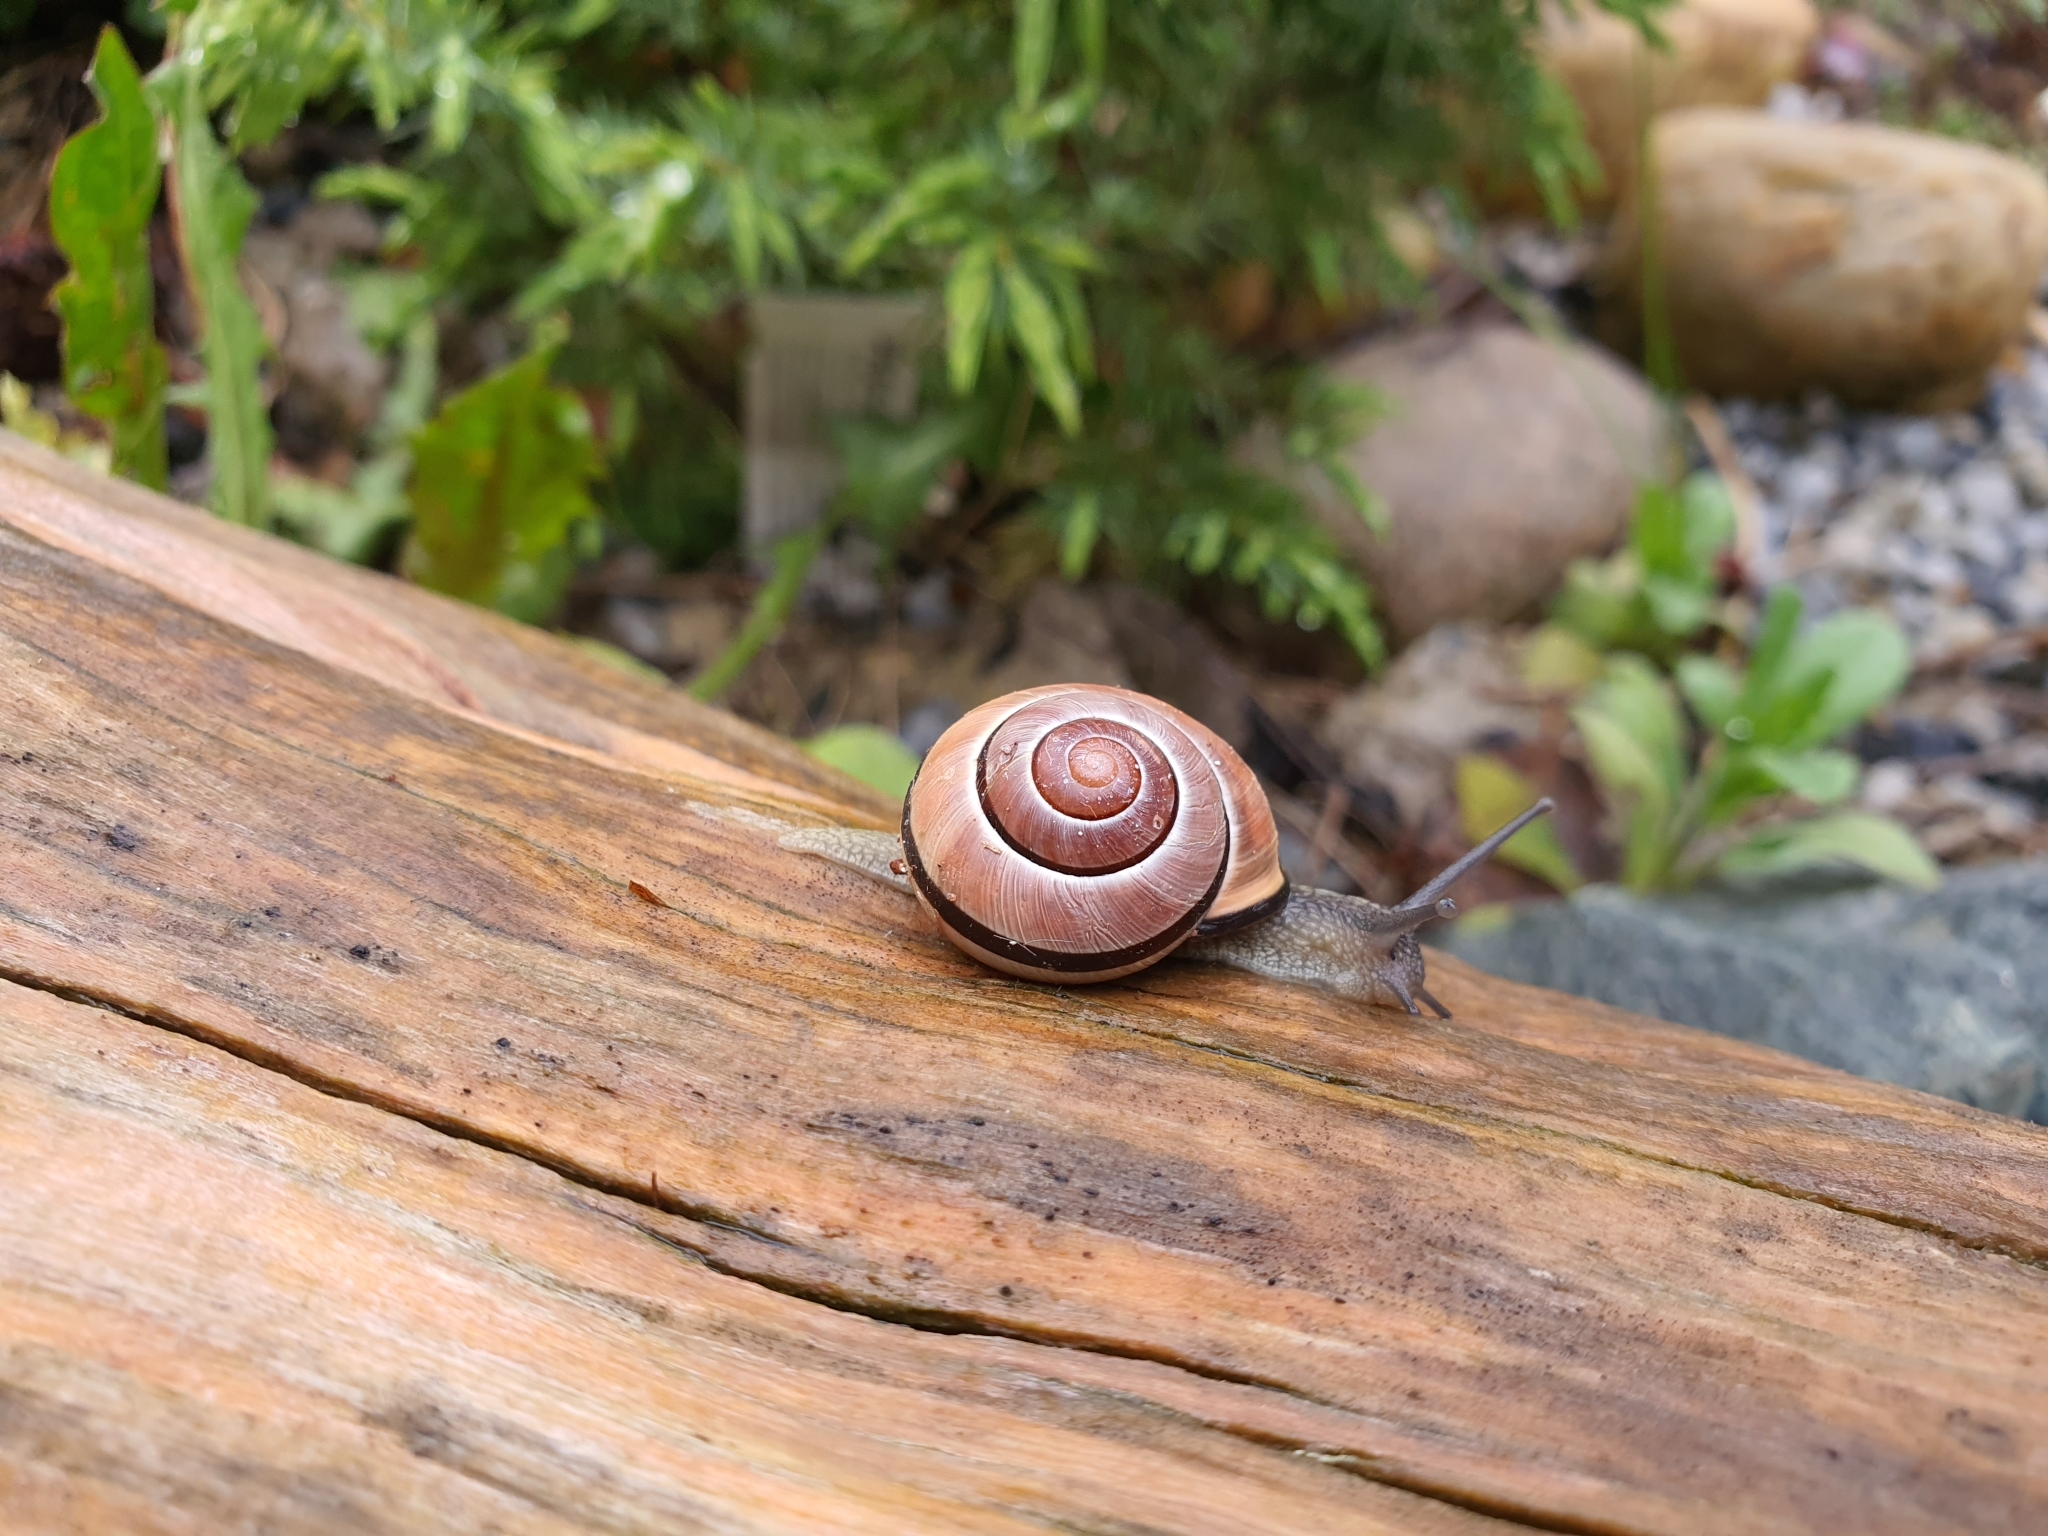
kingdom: Animalia
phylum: Mollusca
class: Gastropoda
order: Stylommatophora
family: Helicidae
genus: Cepaea
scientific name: Cepaea nemoralis
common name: Grovesnail
